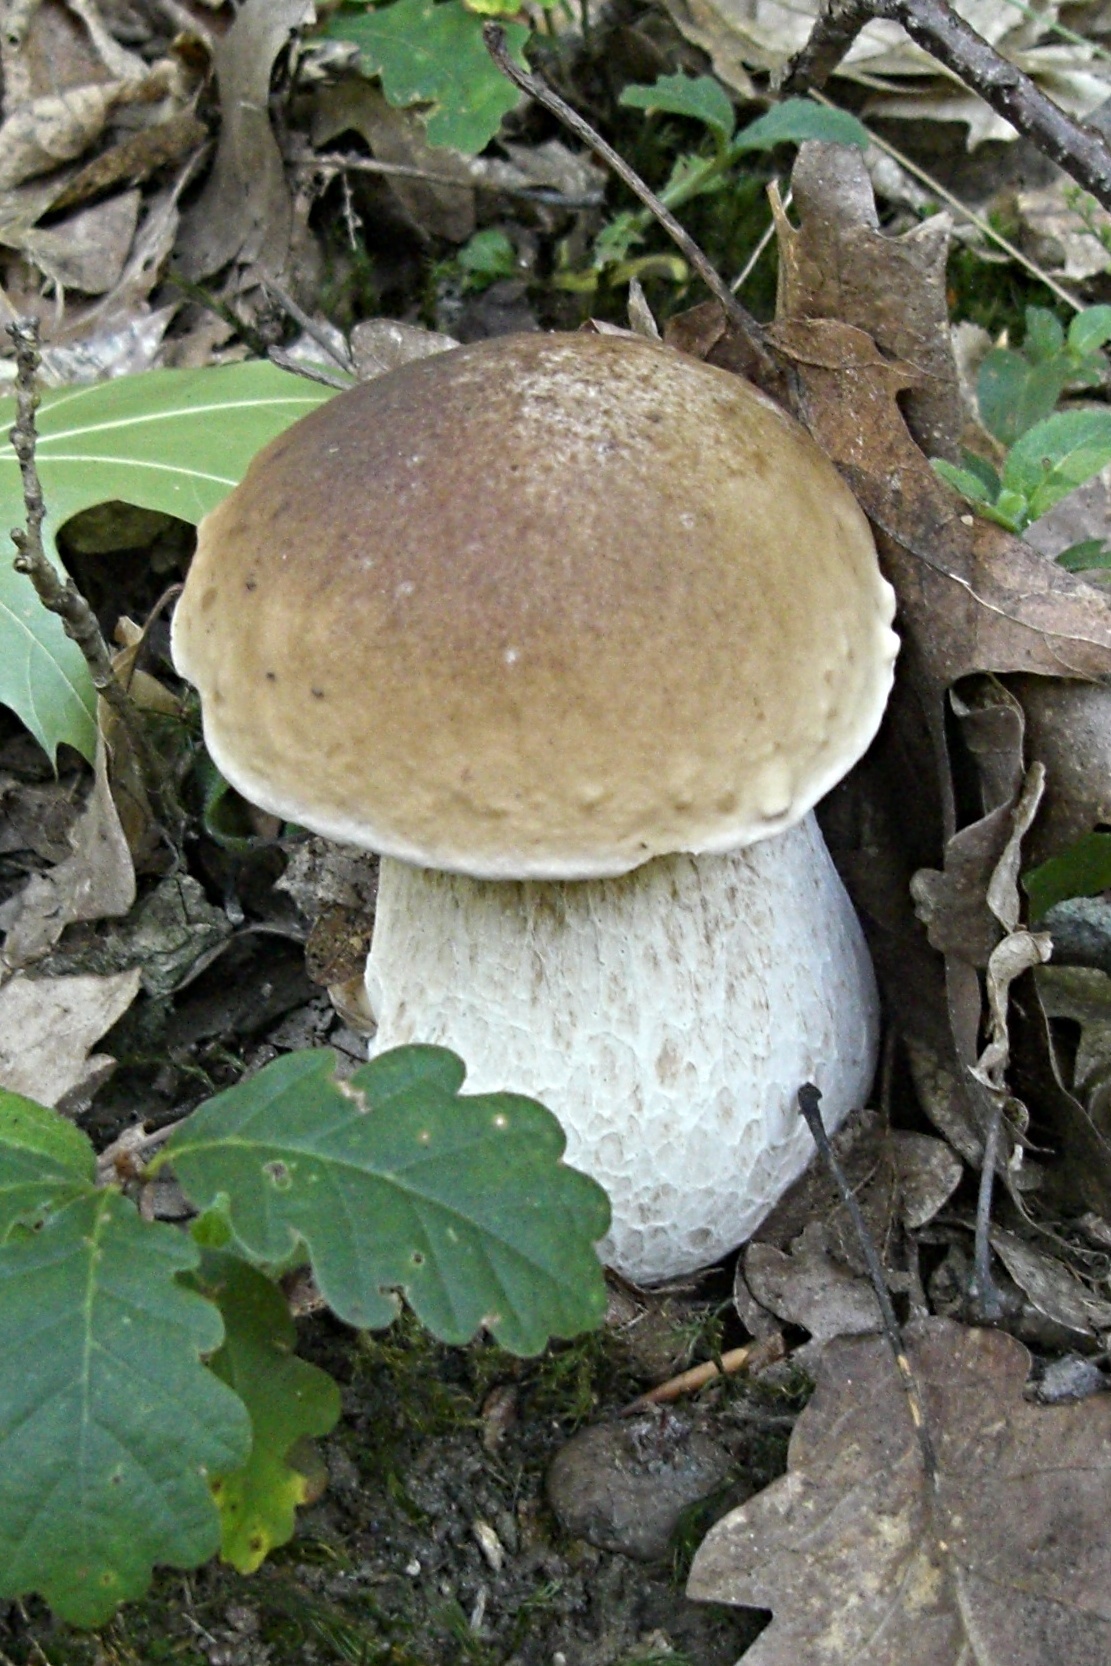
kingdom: Fungi
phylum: Basidiomycota
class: Agaricomycetes
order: Boletales
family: Boletaceae
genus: Boletus
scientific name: Boletus edulis
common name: Cep
